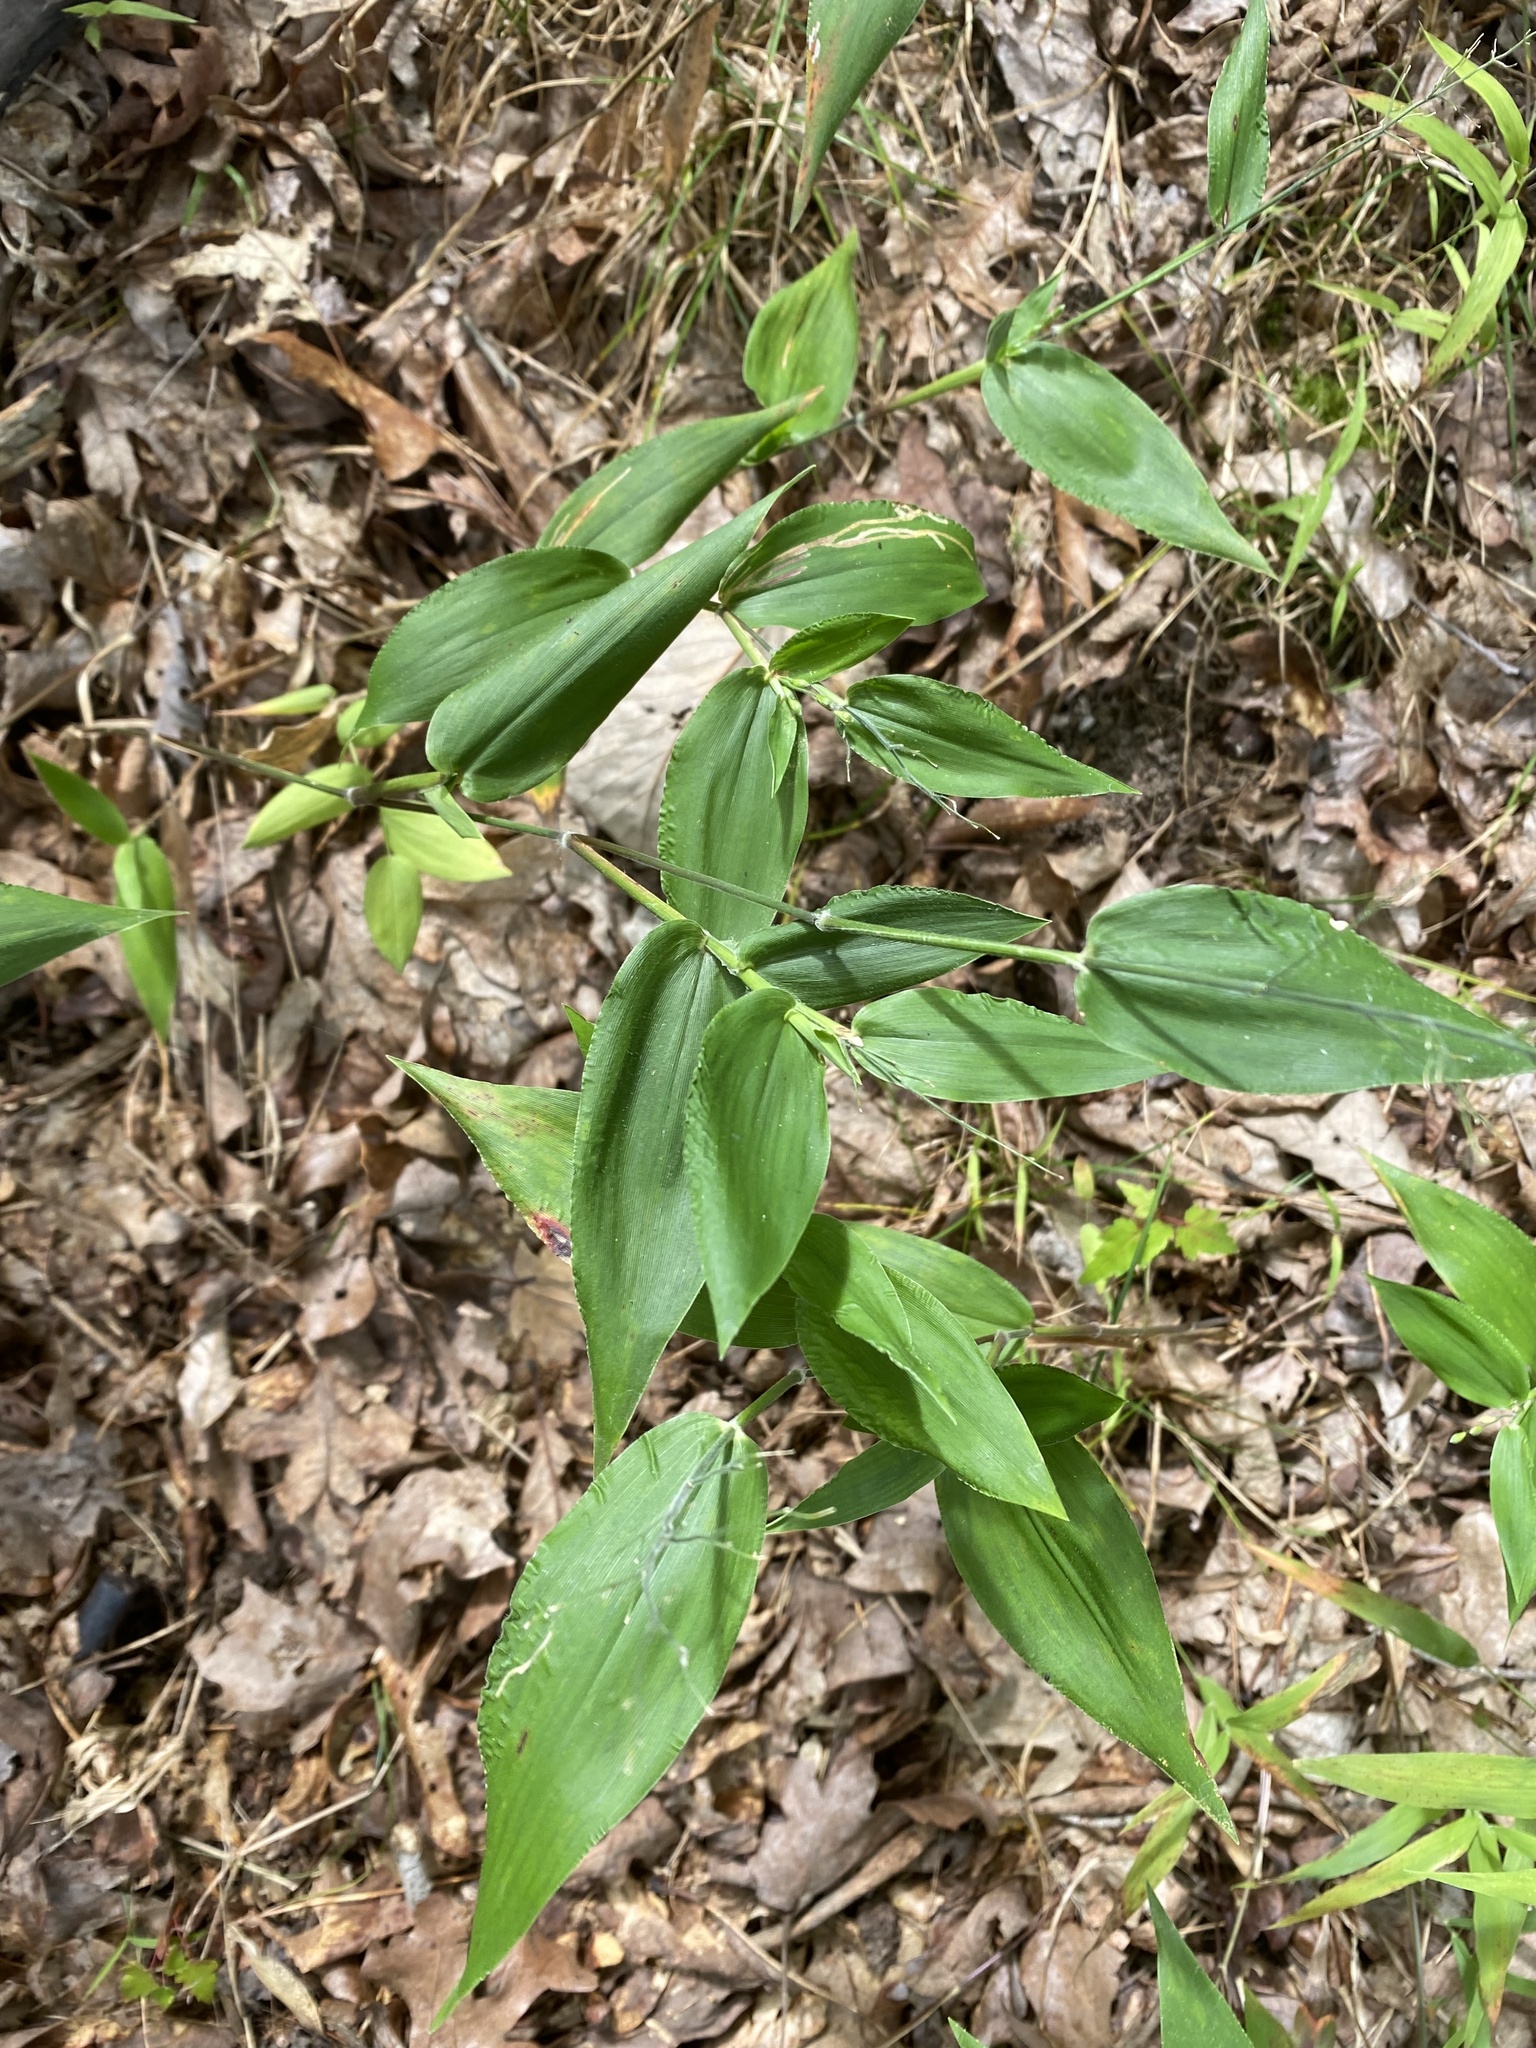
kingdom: Plantae
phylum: Tracheophyta
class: Liliopsida
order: Poales
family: Poaceae
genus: Dichanthelium
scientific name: Dichanthelium boscii
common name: Bosc's panic grass
